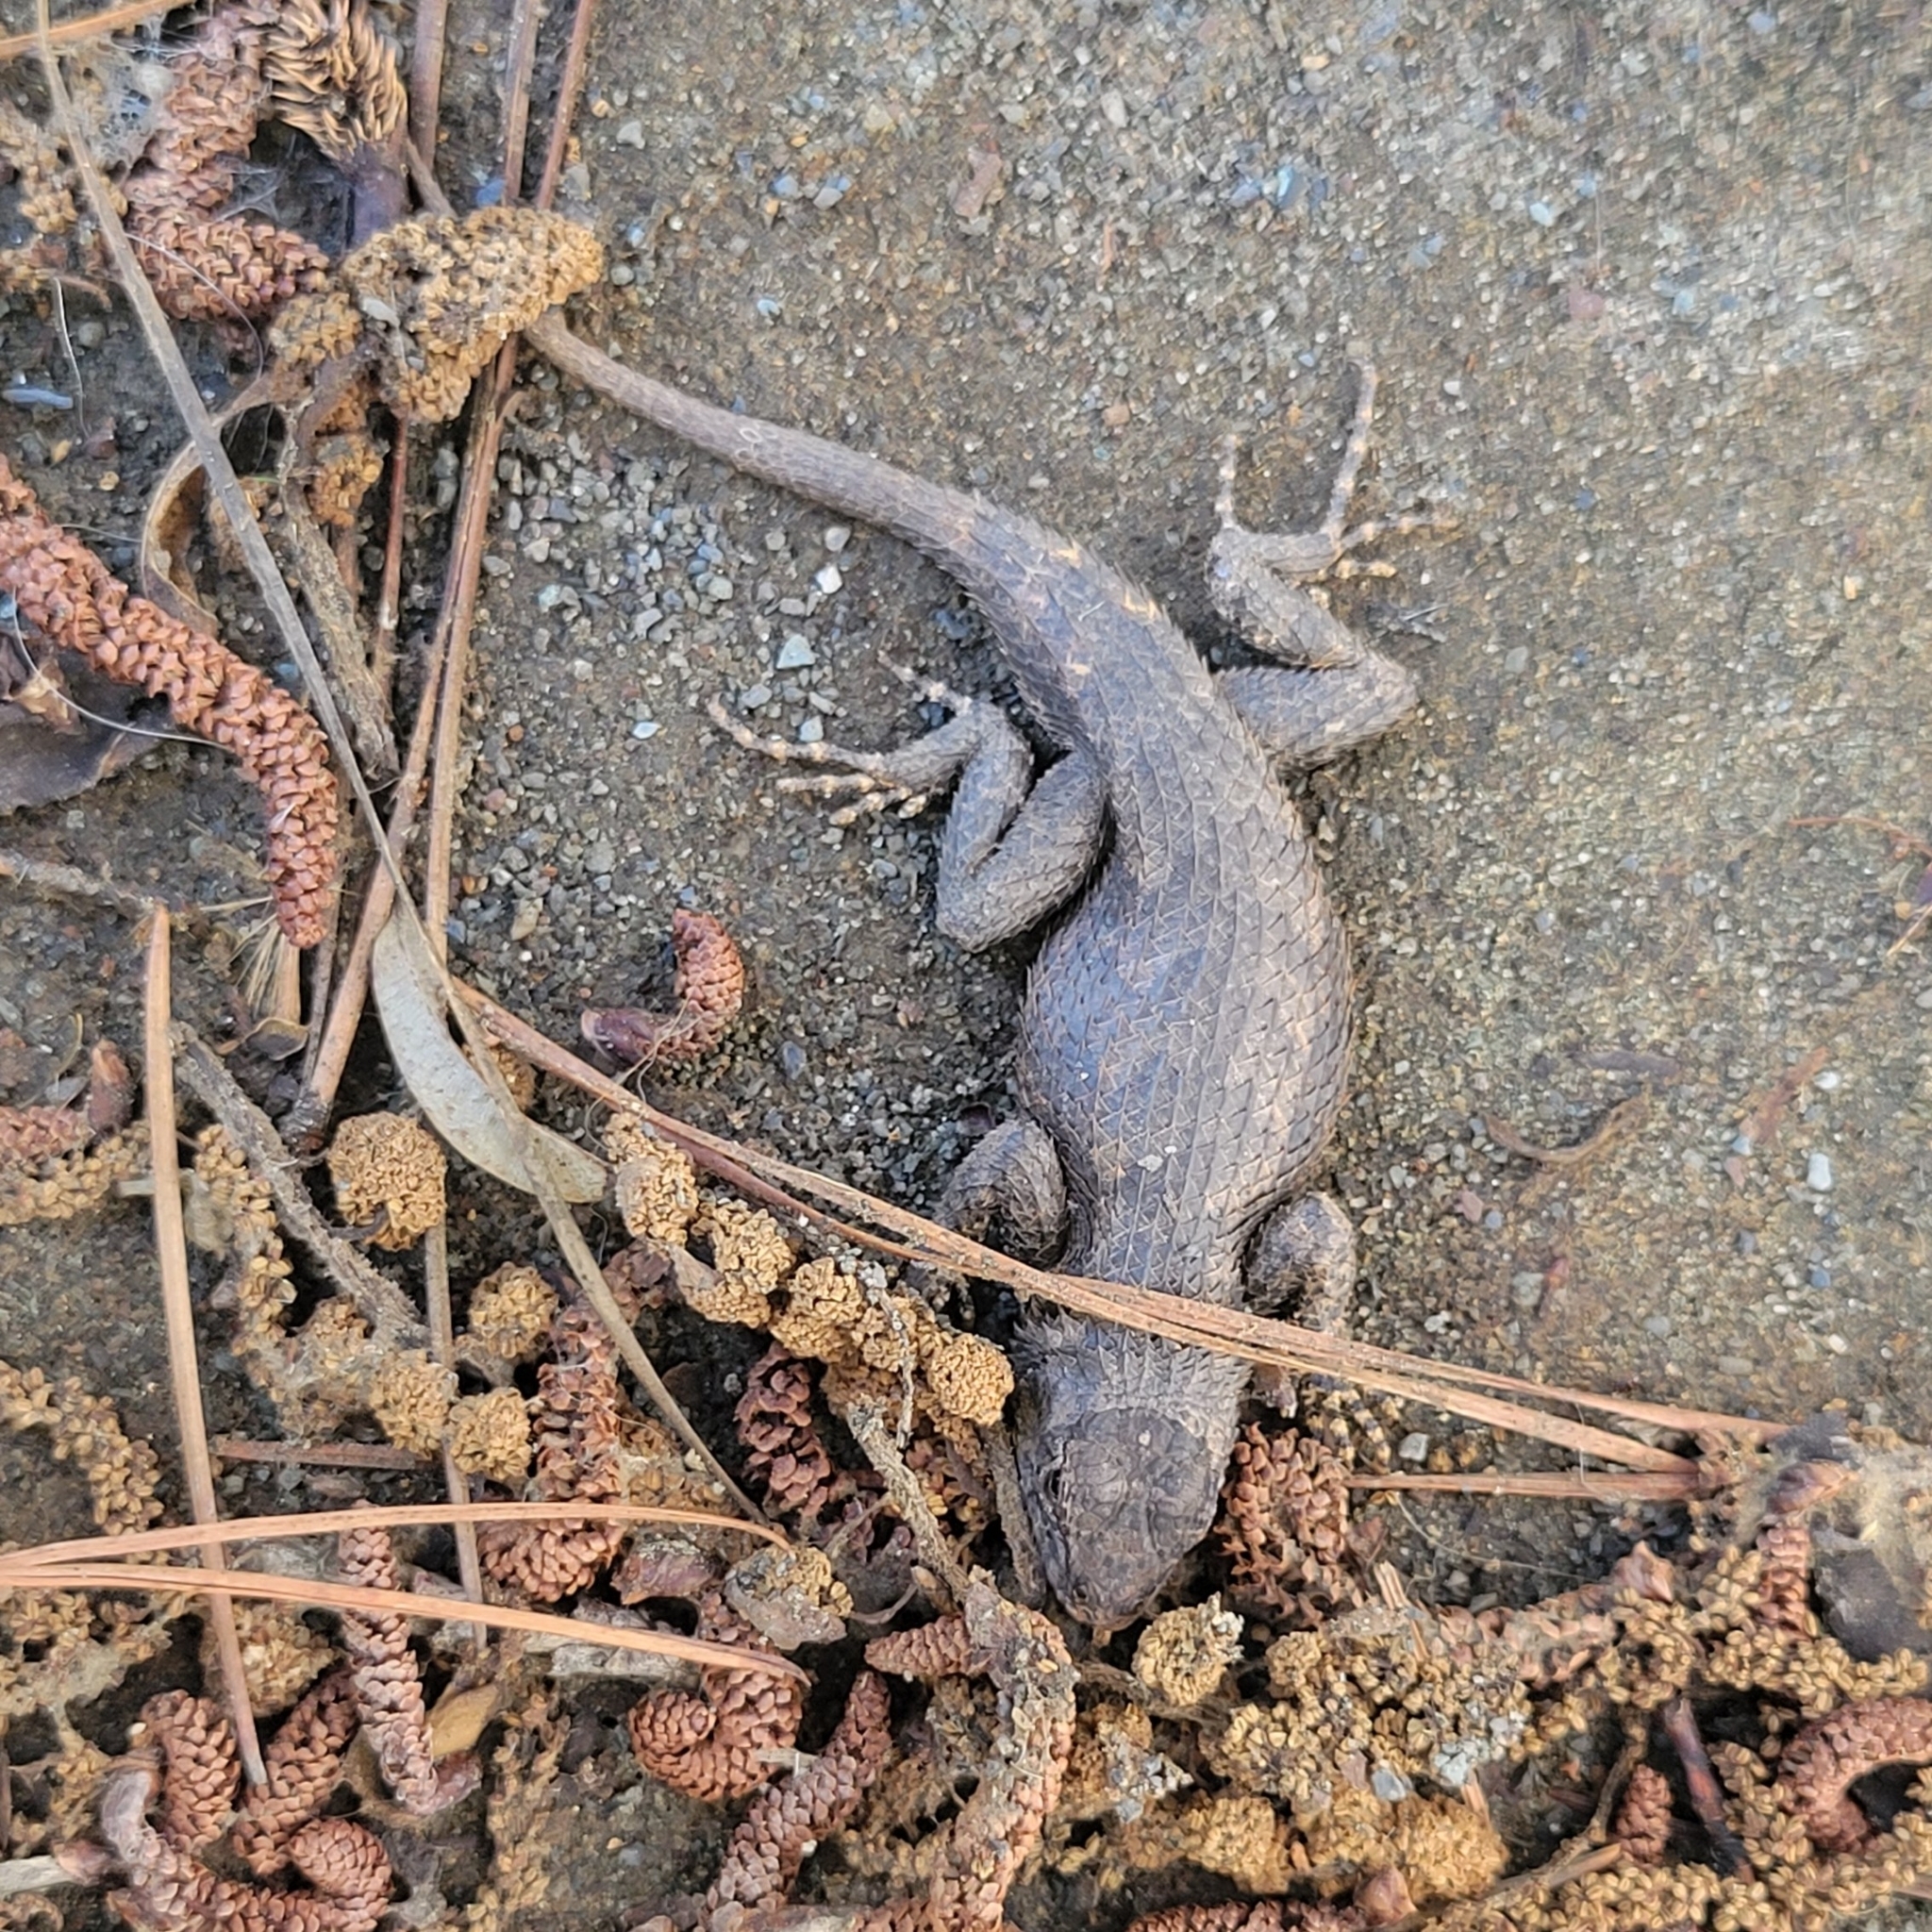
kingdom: Animalia
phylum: Chordata
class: Squamata
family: Phrynosomatidae
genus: Sceloporus
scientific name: Sceloporus undulatus
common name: Eastern fence lizard
